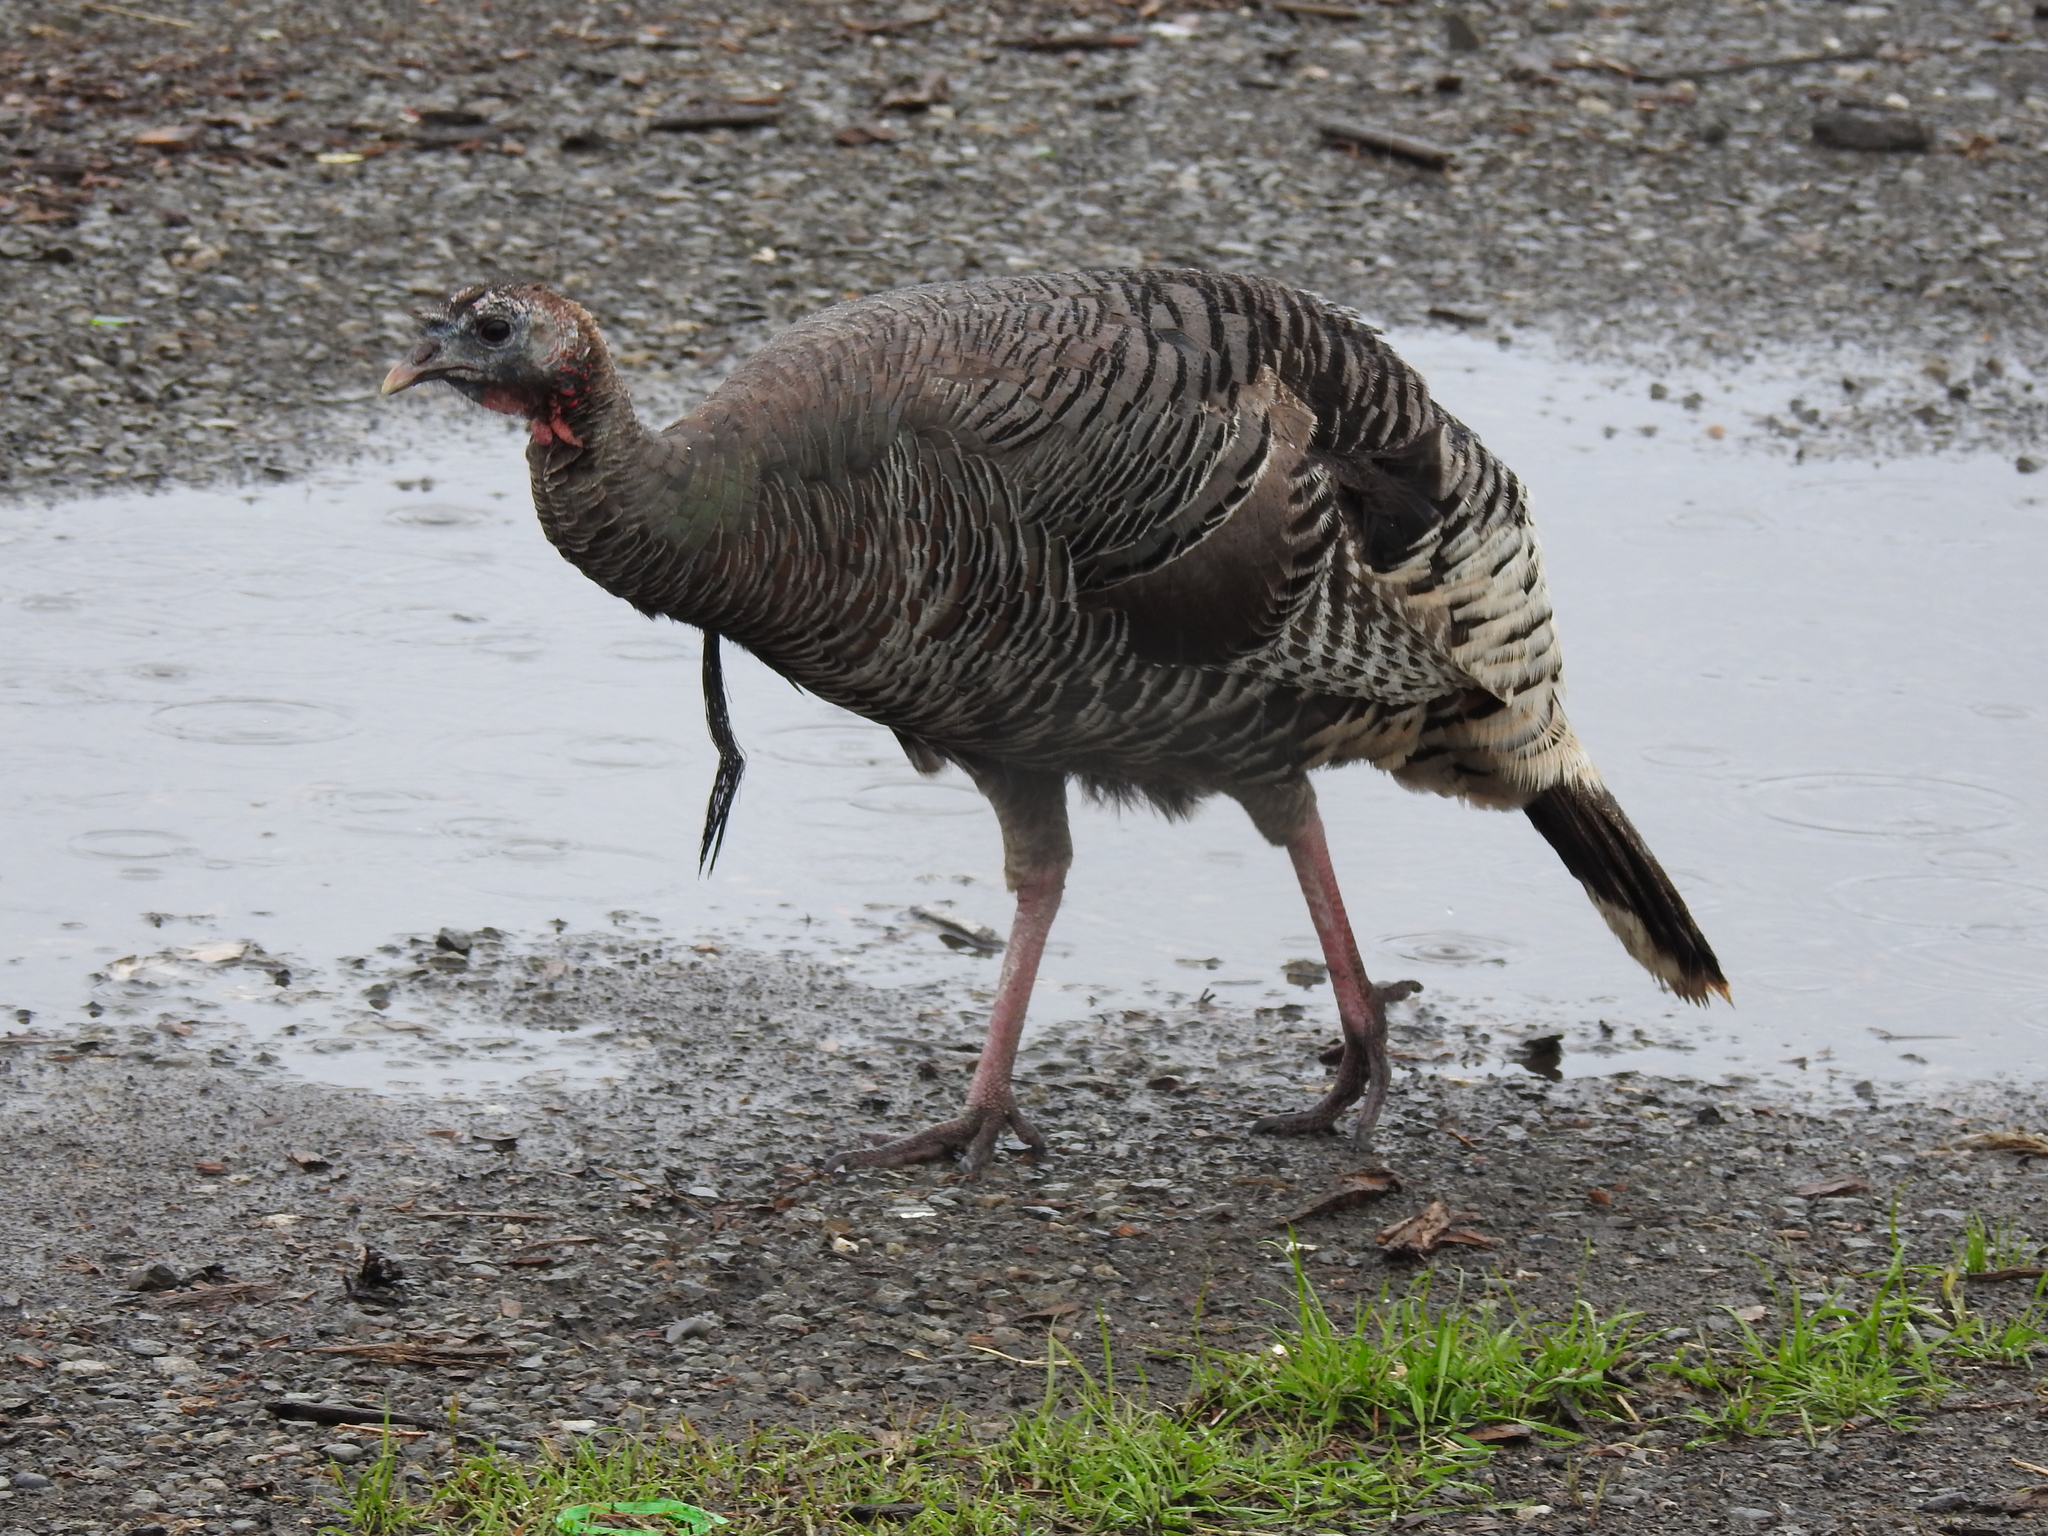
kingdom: Animalia
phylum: Chordata
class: Aves
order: Galliformes
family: Phasianidae
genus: Meleagris
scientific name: Meleagris gallopavo
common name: Wild turkey
